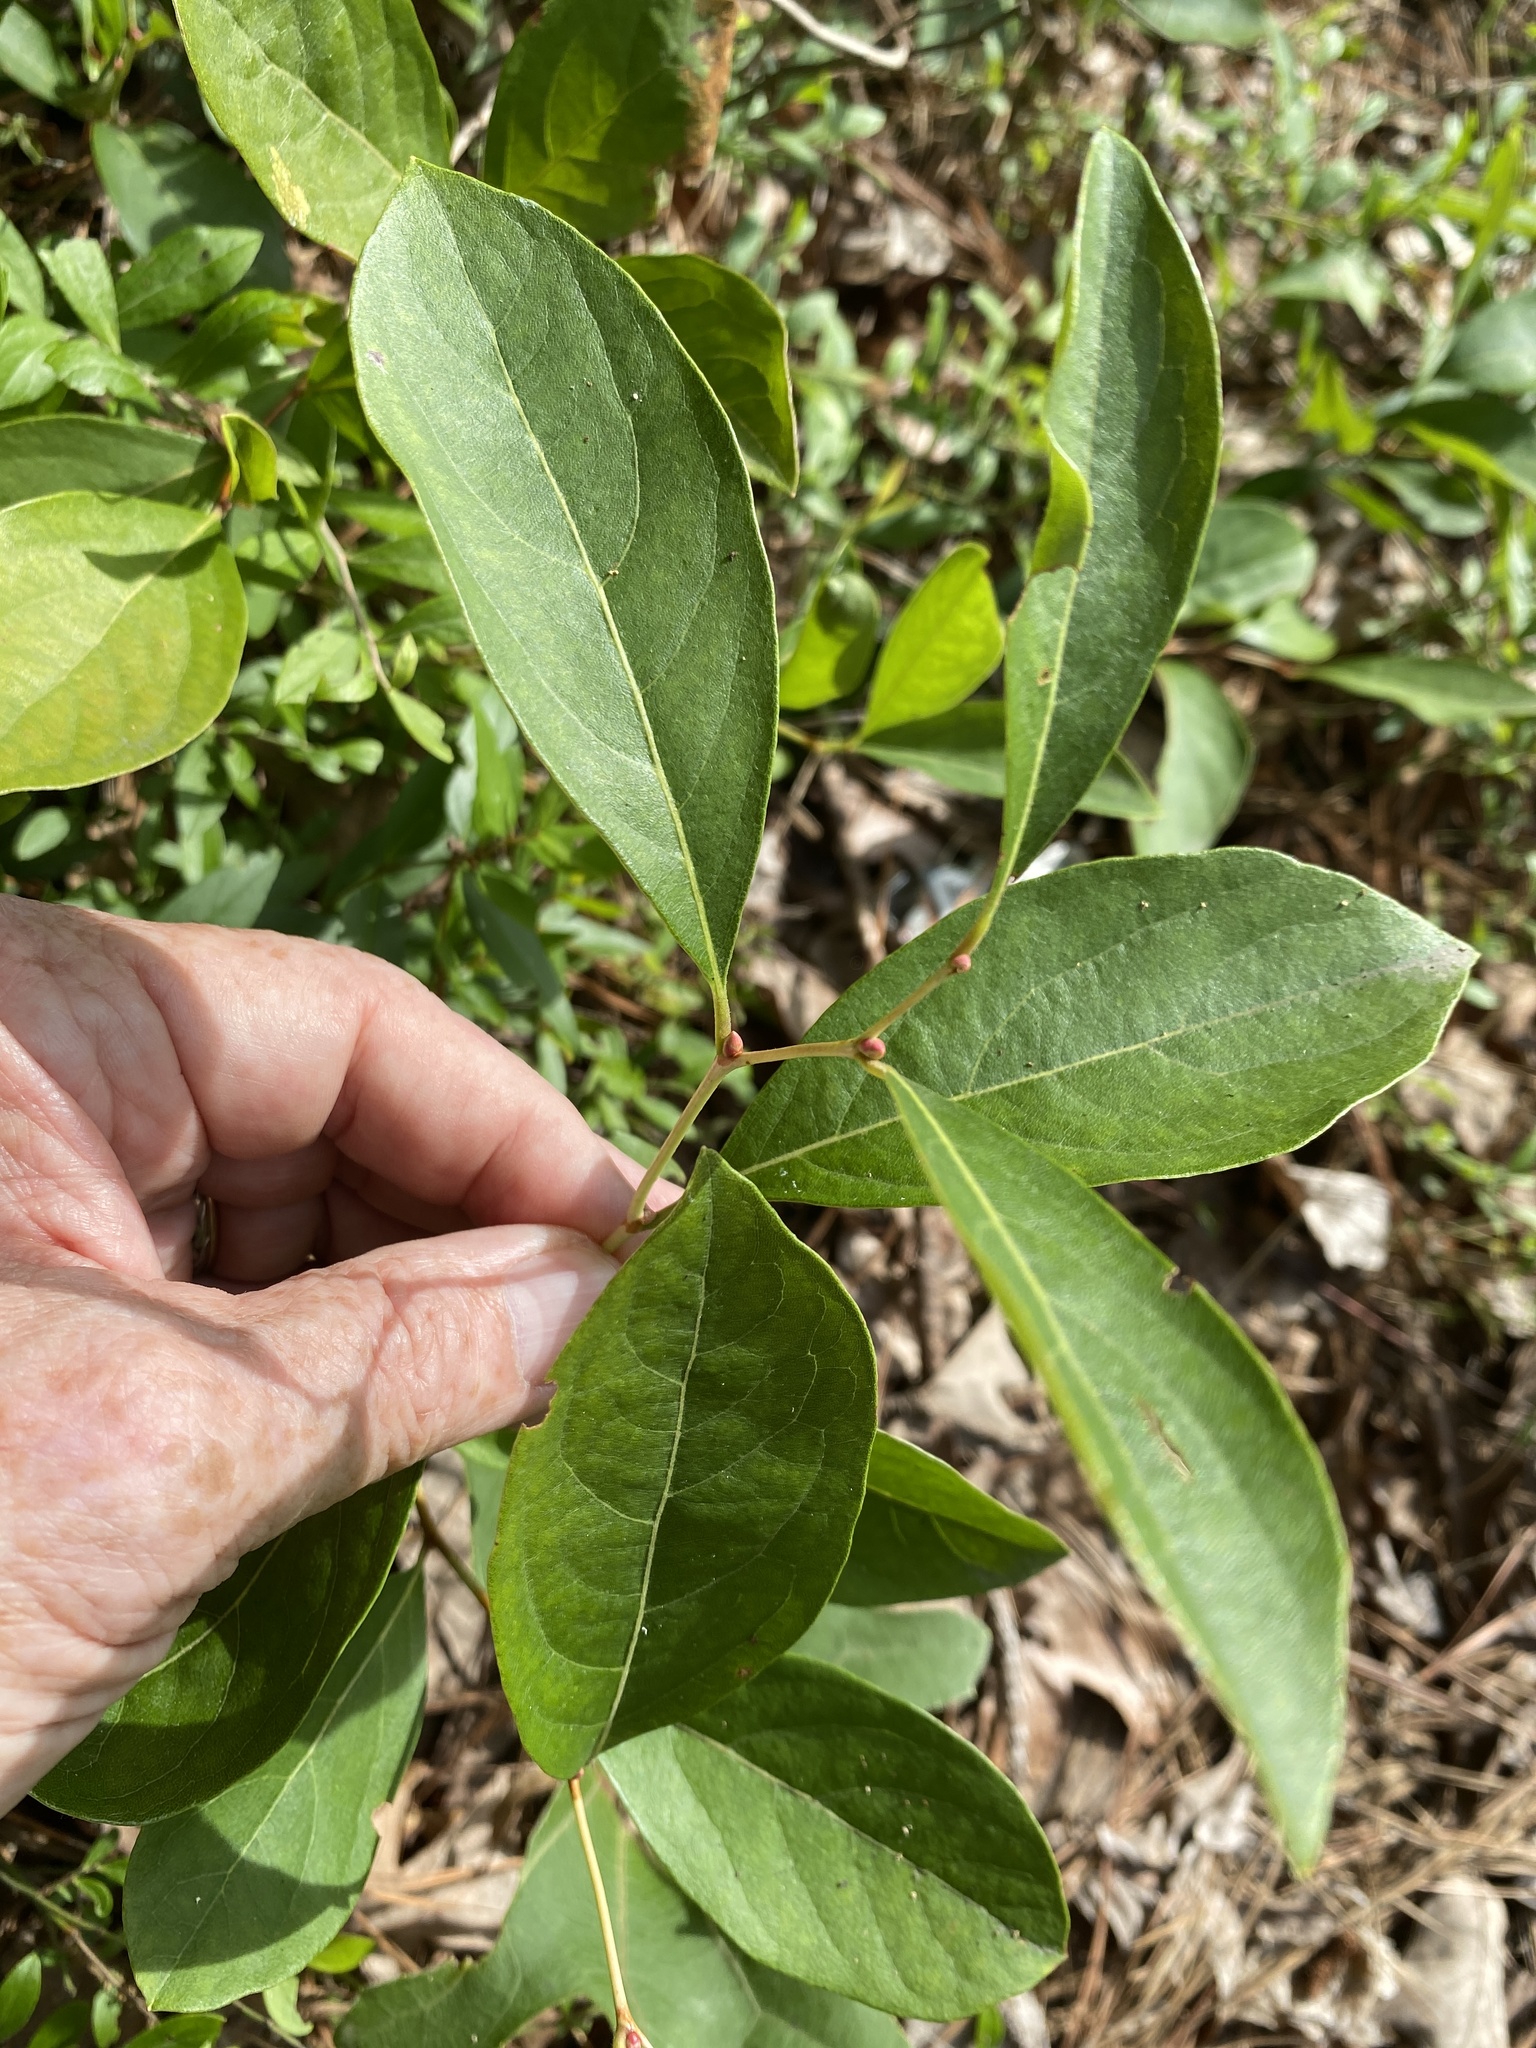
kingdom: Plantae
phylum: Tracheophyta
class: Magnoliopsida
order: Ericales
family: Ericaceae
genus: Lyonia
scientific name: Lyonia mariana
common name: Staggerbush
